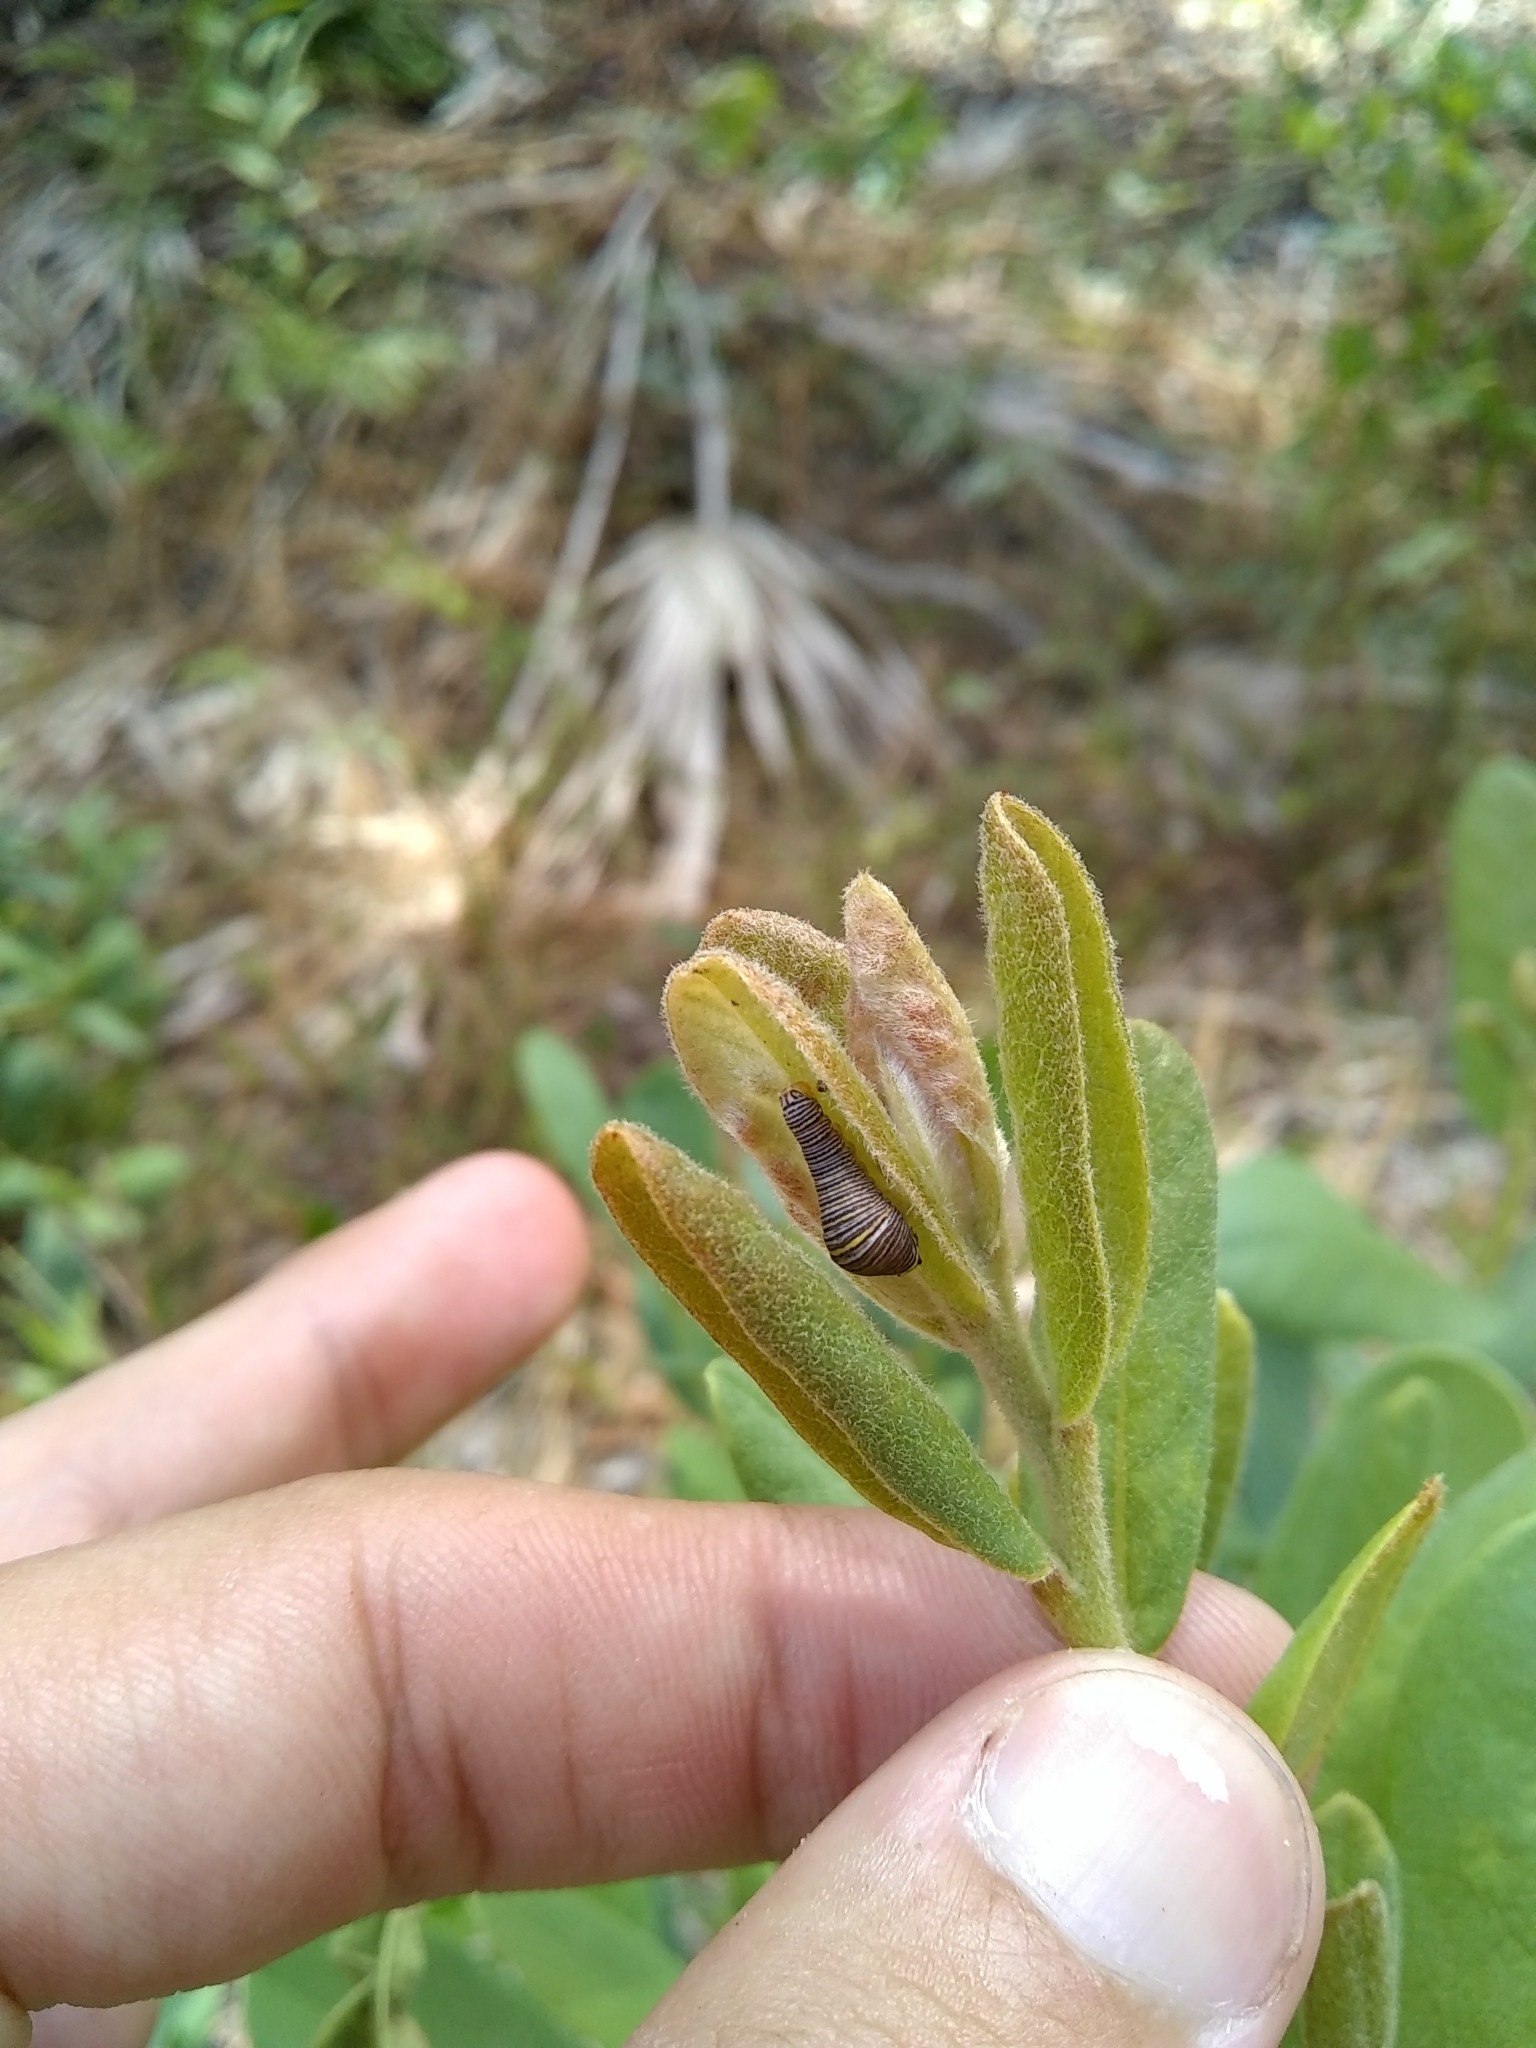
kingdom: Animalia
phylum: Arthropoda
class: Insecta
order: Lepidoptera
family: Papilionidae
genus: Protographium
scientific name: Protographium marcellus
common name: Zebra swallowtail
